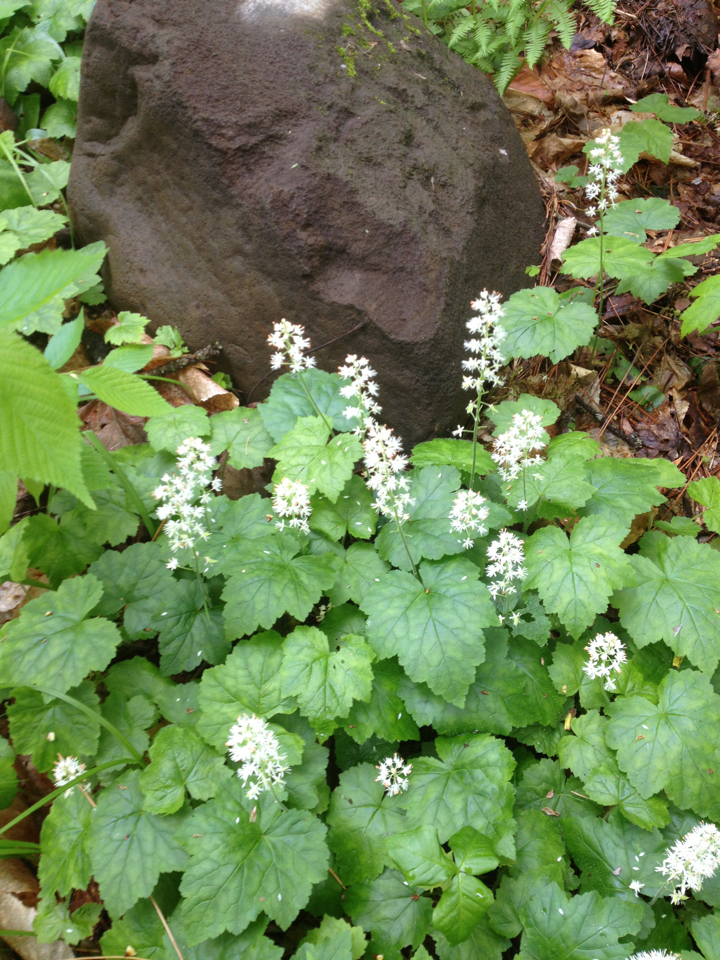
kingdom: Plantae
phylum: Tracheophyta
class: Magnoliopsida
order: Saxifragales
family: Saxifragaceae
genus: Tiarella
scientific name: Tiarella stolonifera
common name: Stoloniferous foamflower
